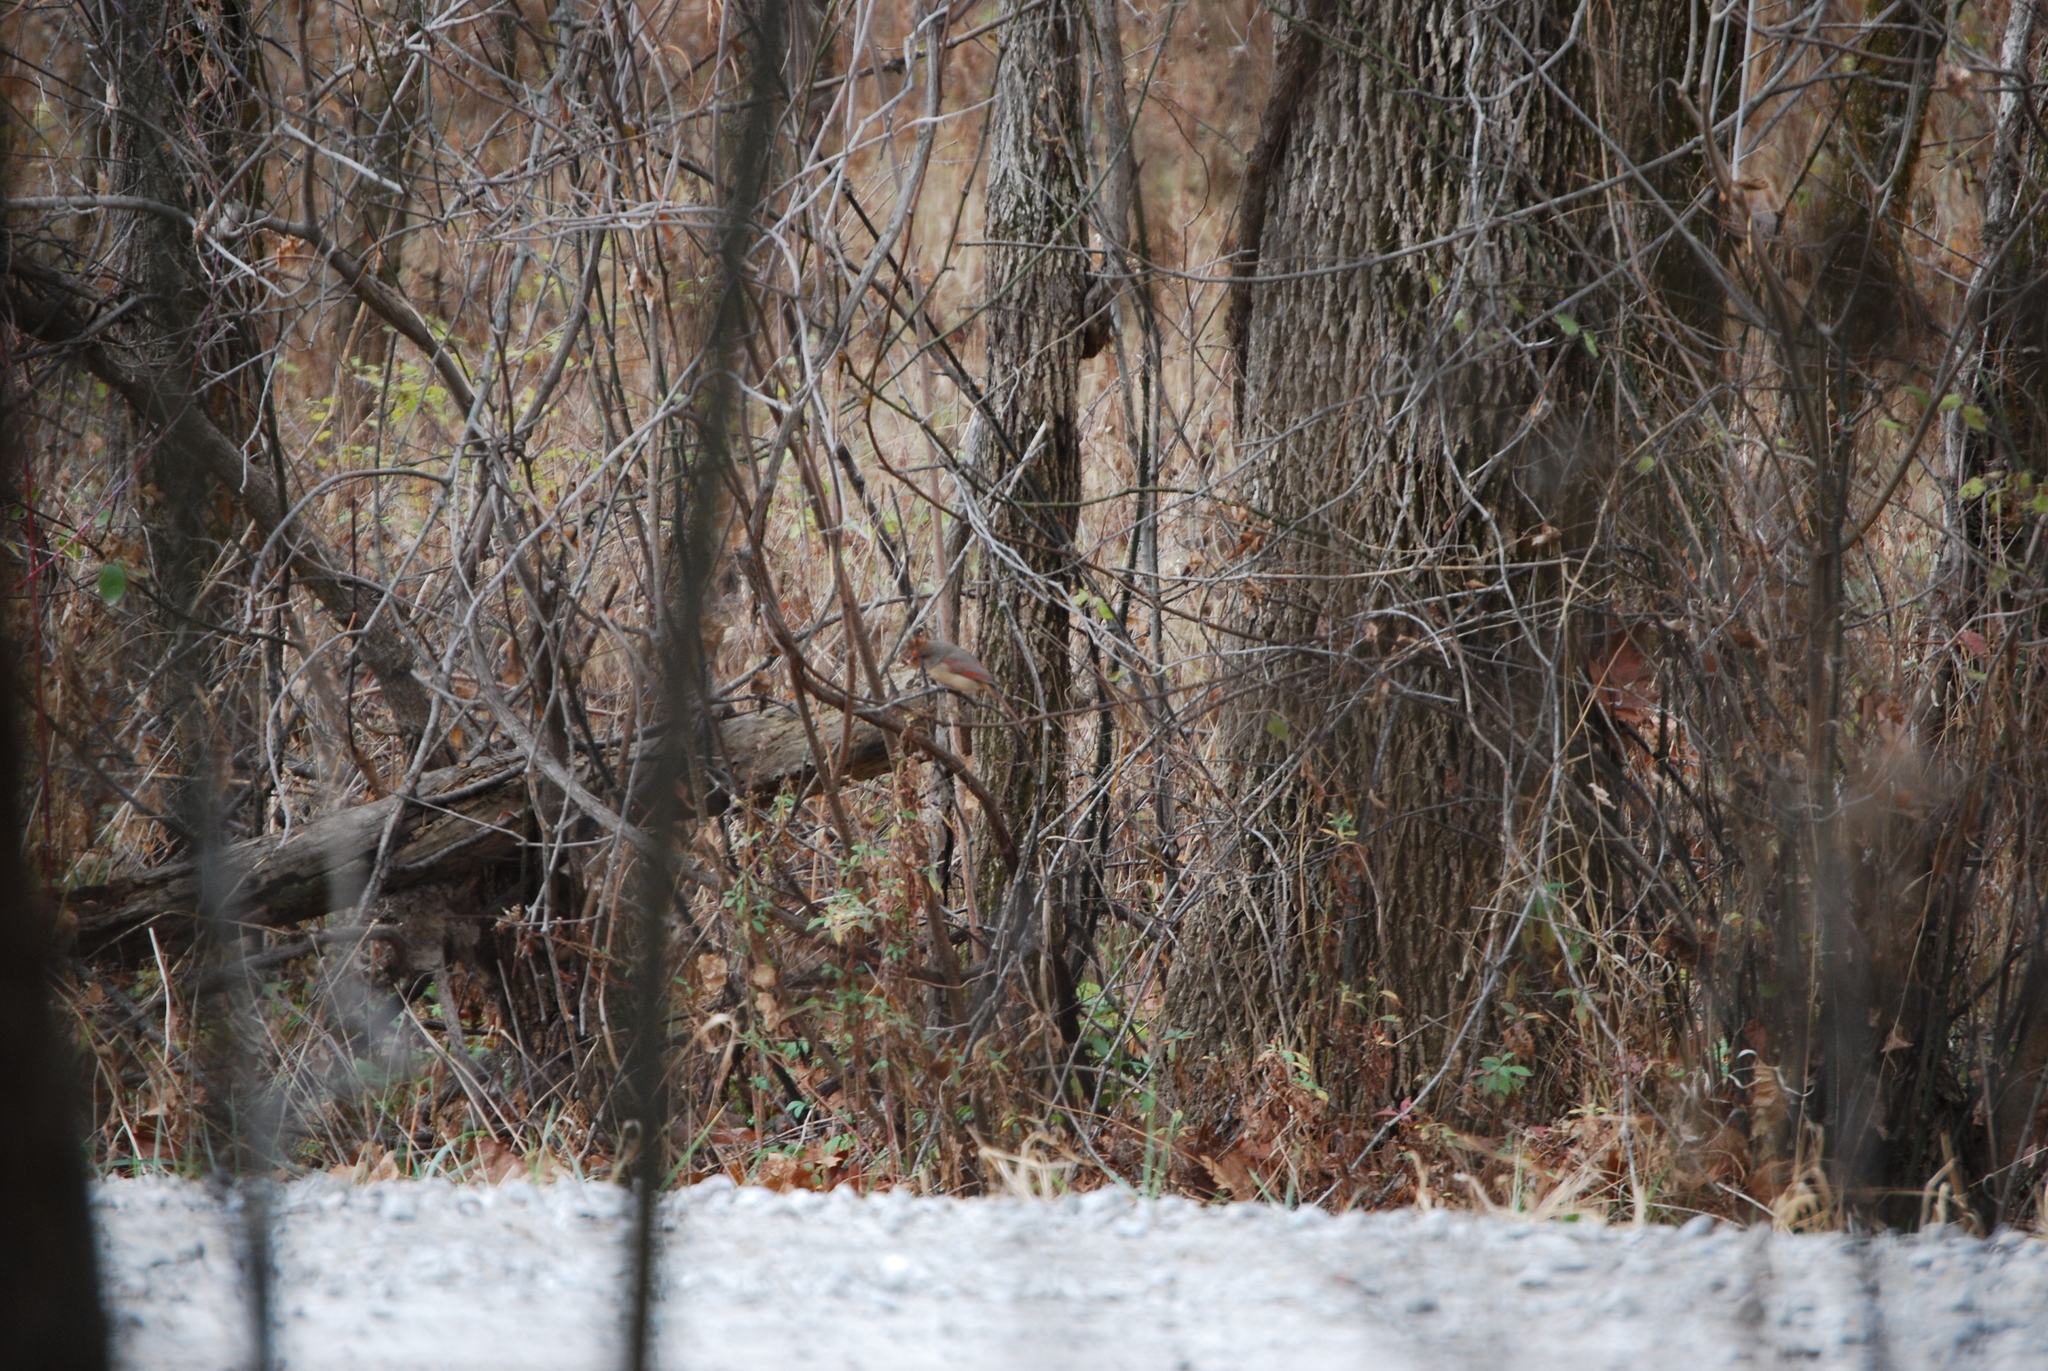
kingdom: Animalia
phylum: Chordata
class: Aves
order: Passeriformes
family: Cardinalidae
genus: Cardinalis
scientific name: Cardinalis cardinalis
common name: Northern cardinal
